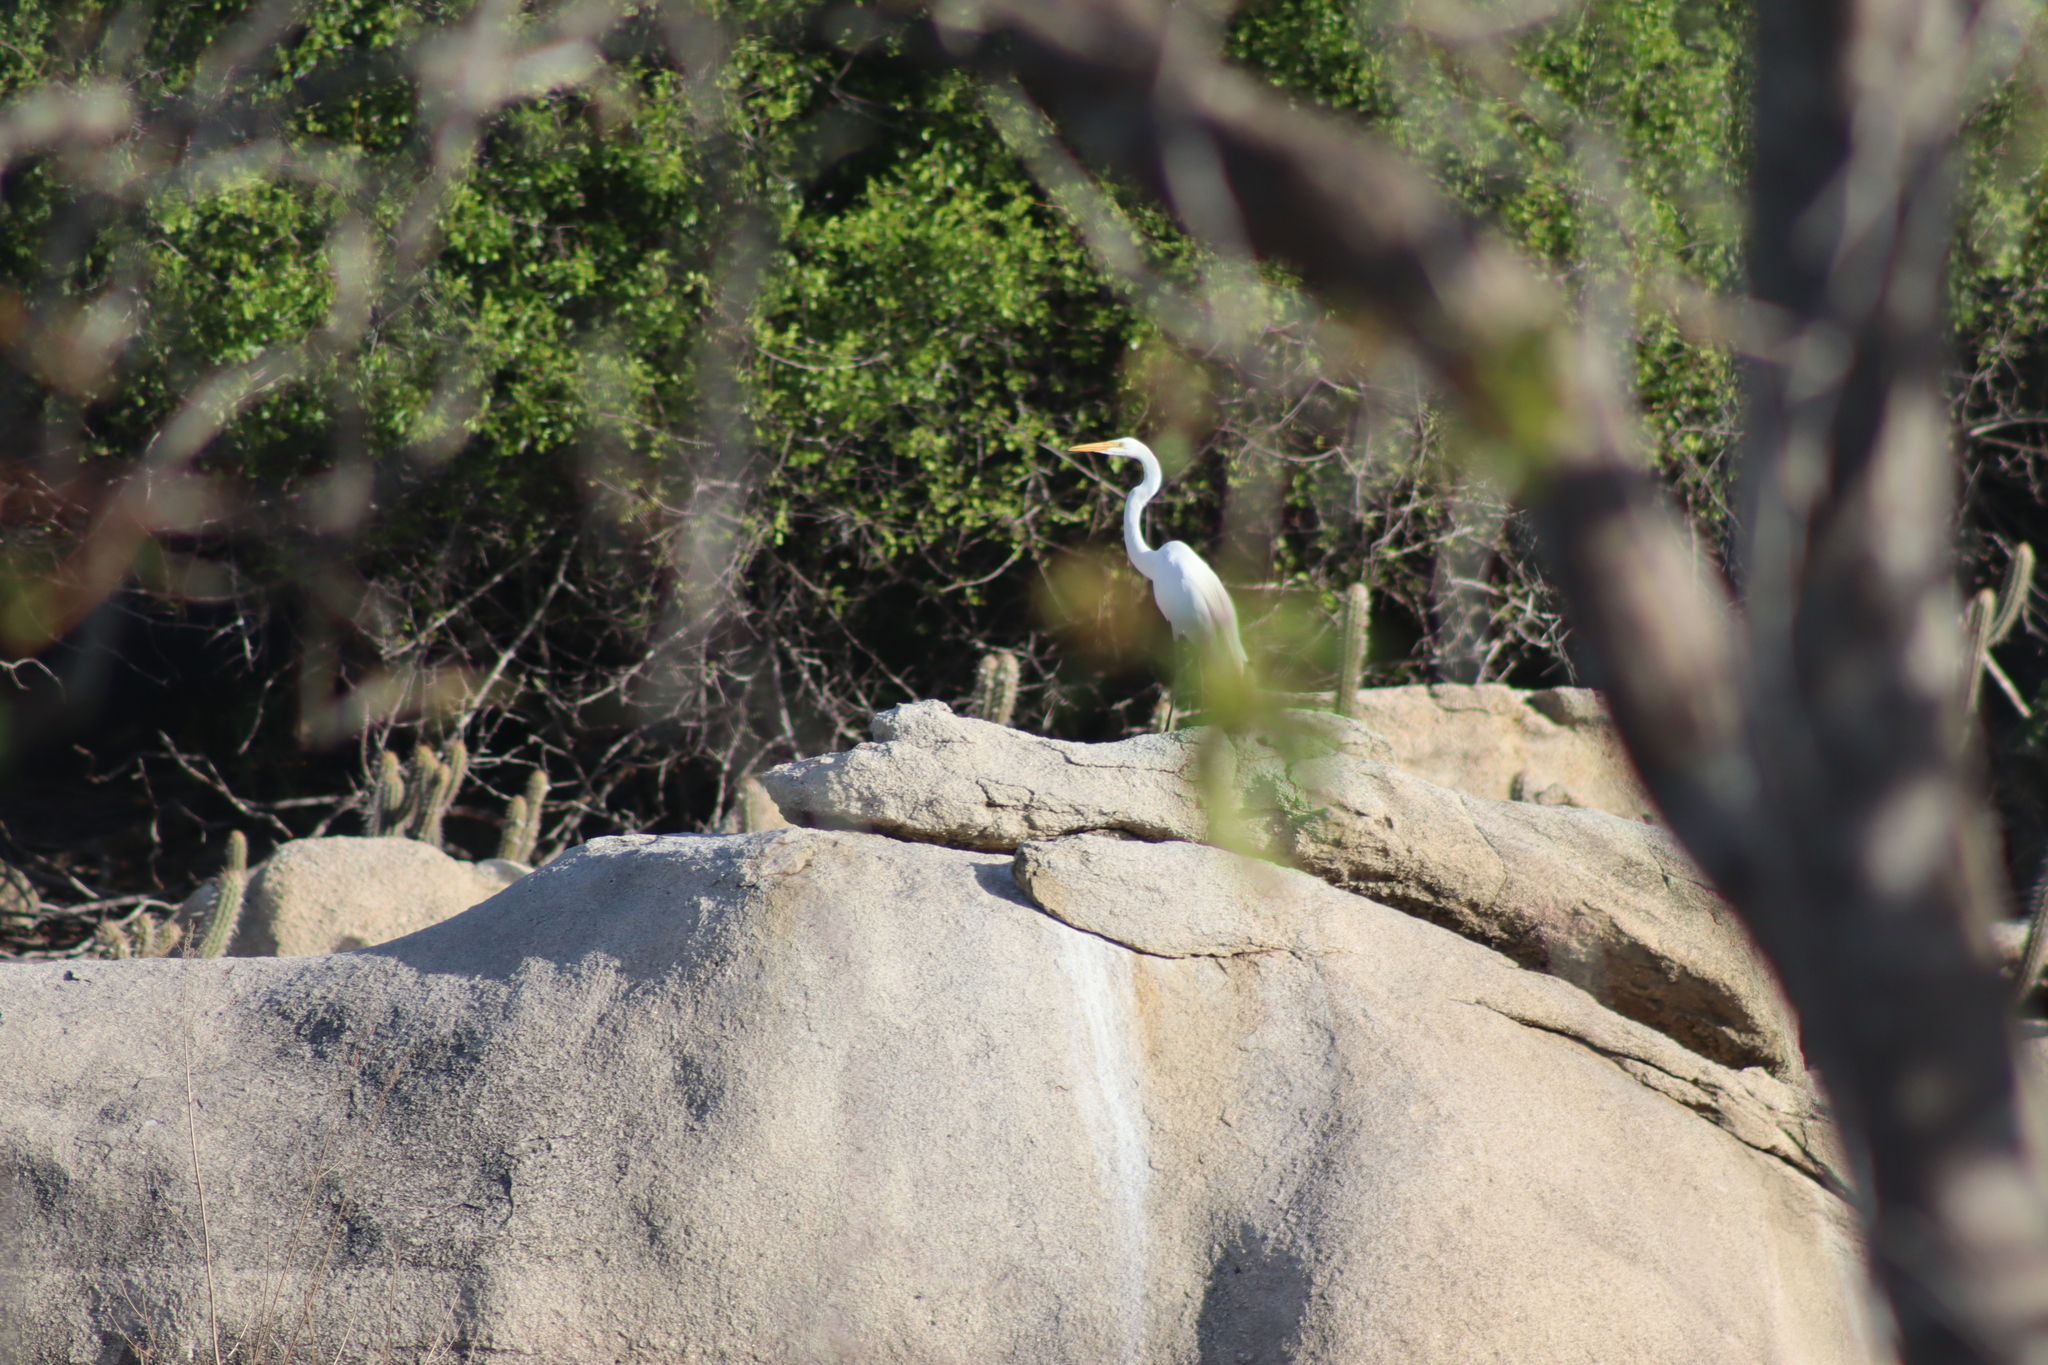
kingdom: Animalia
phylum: Chordata
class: Aves
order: Pelecaniformes
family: Ardeidae
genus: Ardea
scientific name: Ardea alba
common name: Great egret
